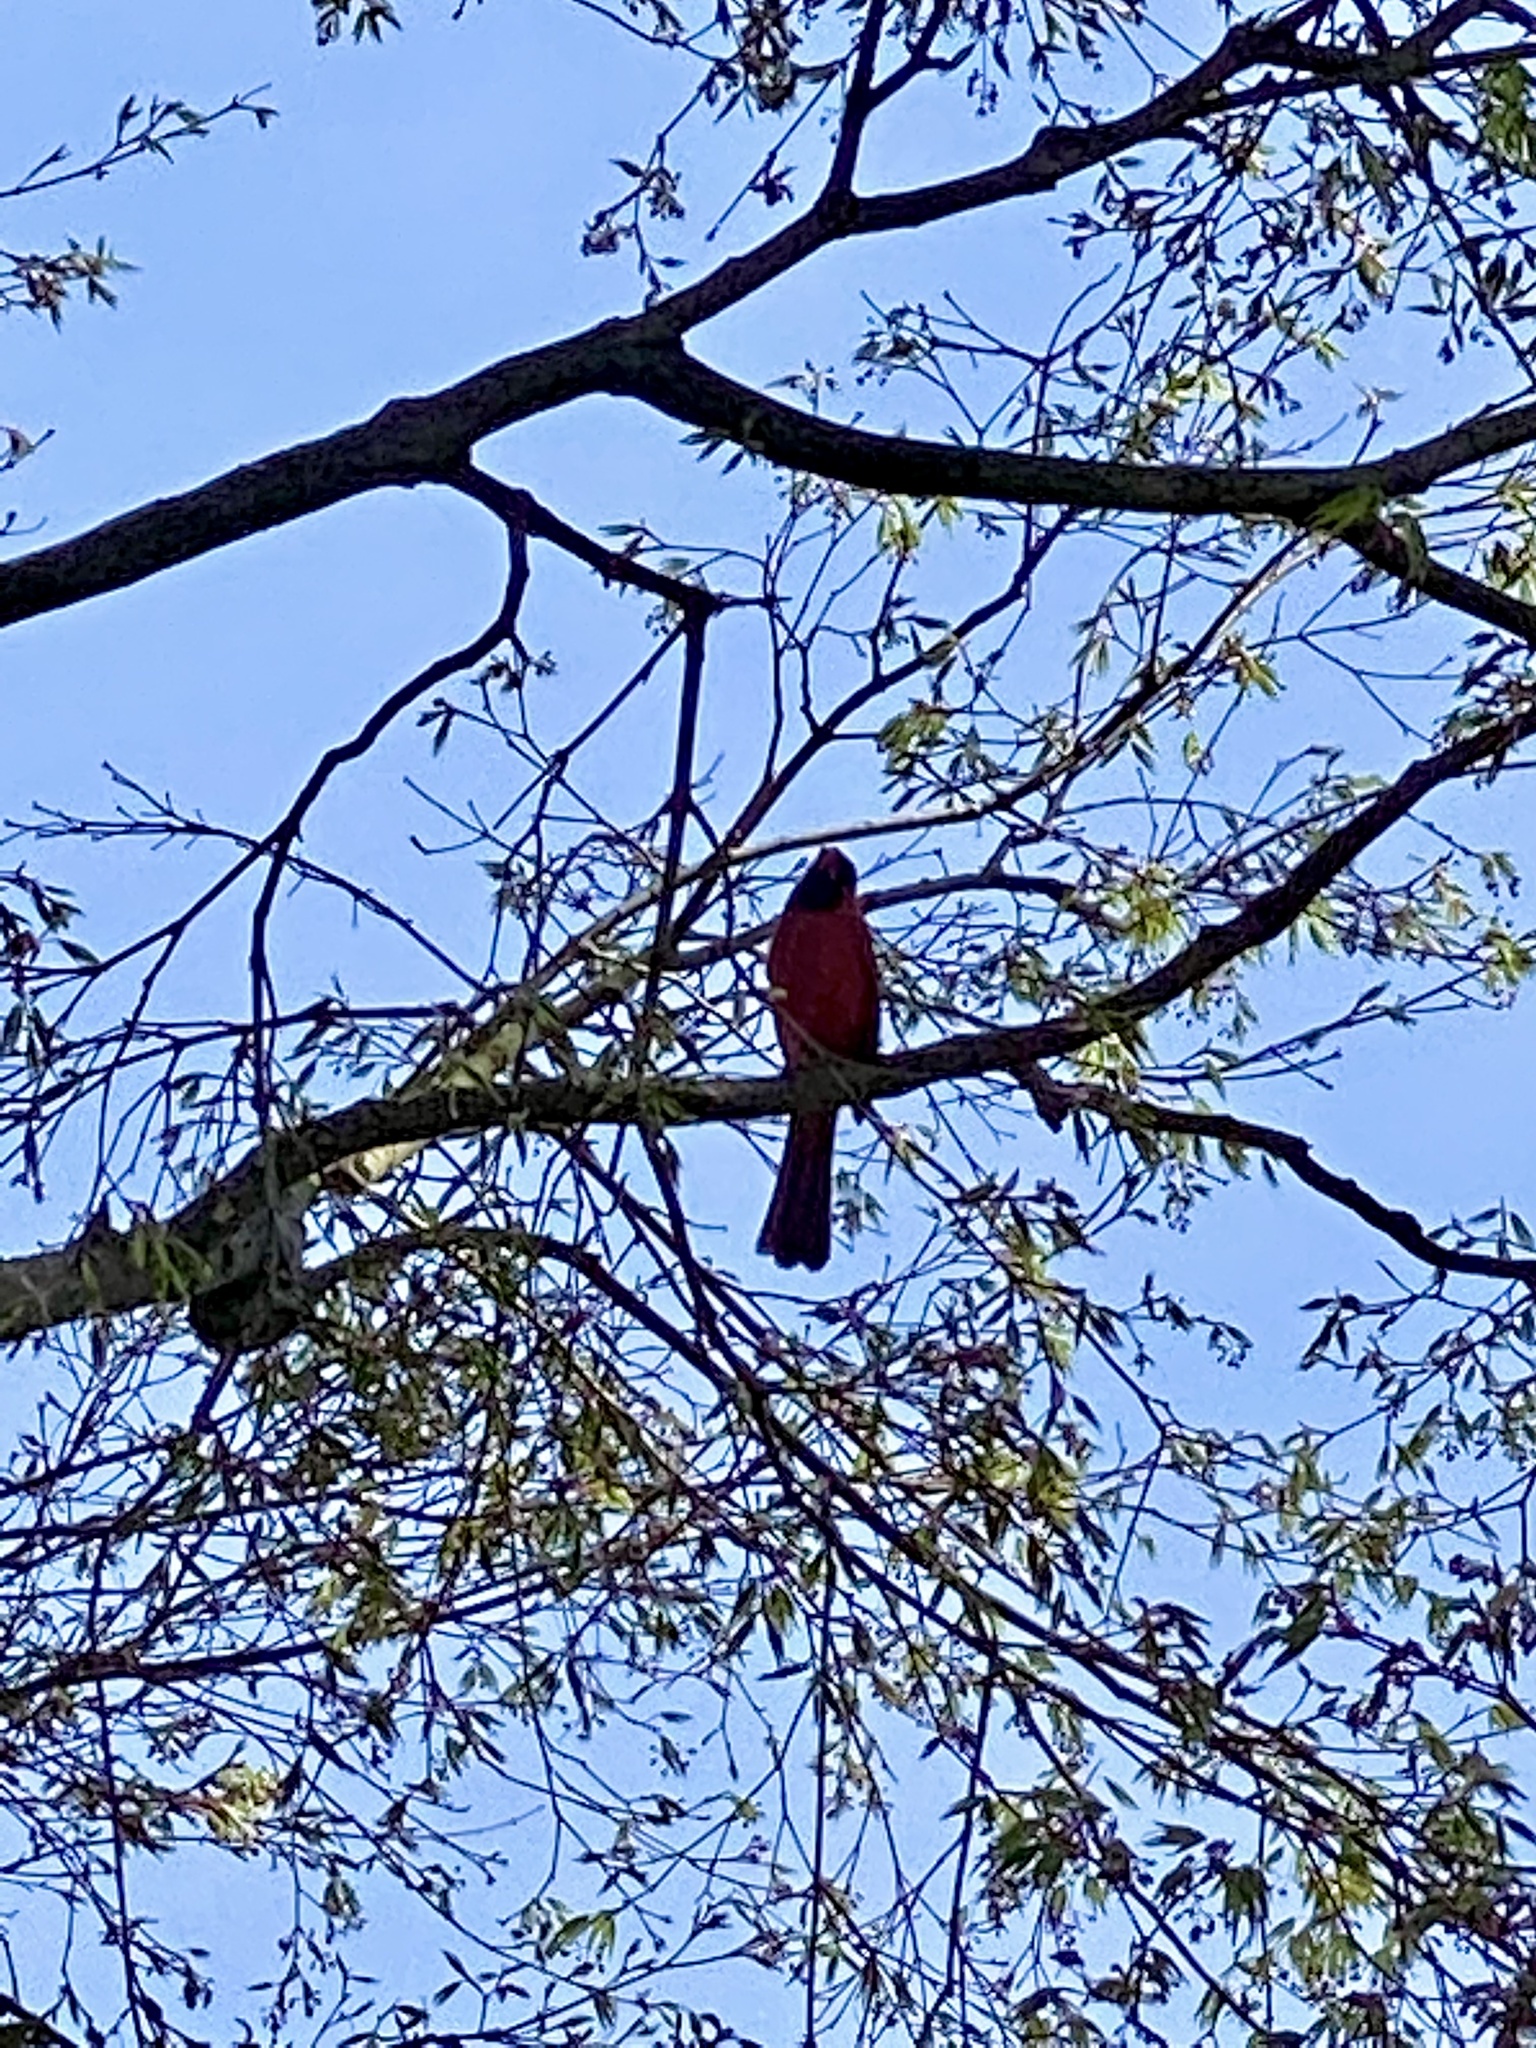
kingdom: Animalia
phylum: Chordata
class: Aves
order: Passeriformes
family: Cardinalidae
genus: Cardinalis
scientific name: Cardinalis cardinalis
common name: Northern cardinal
